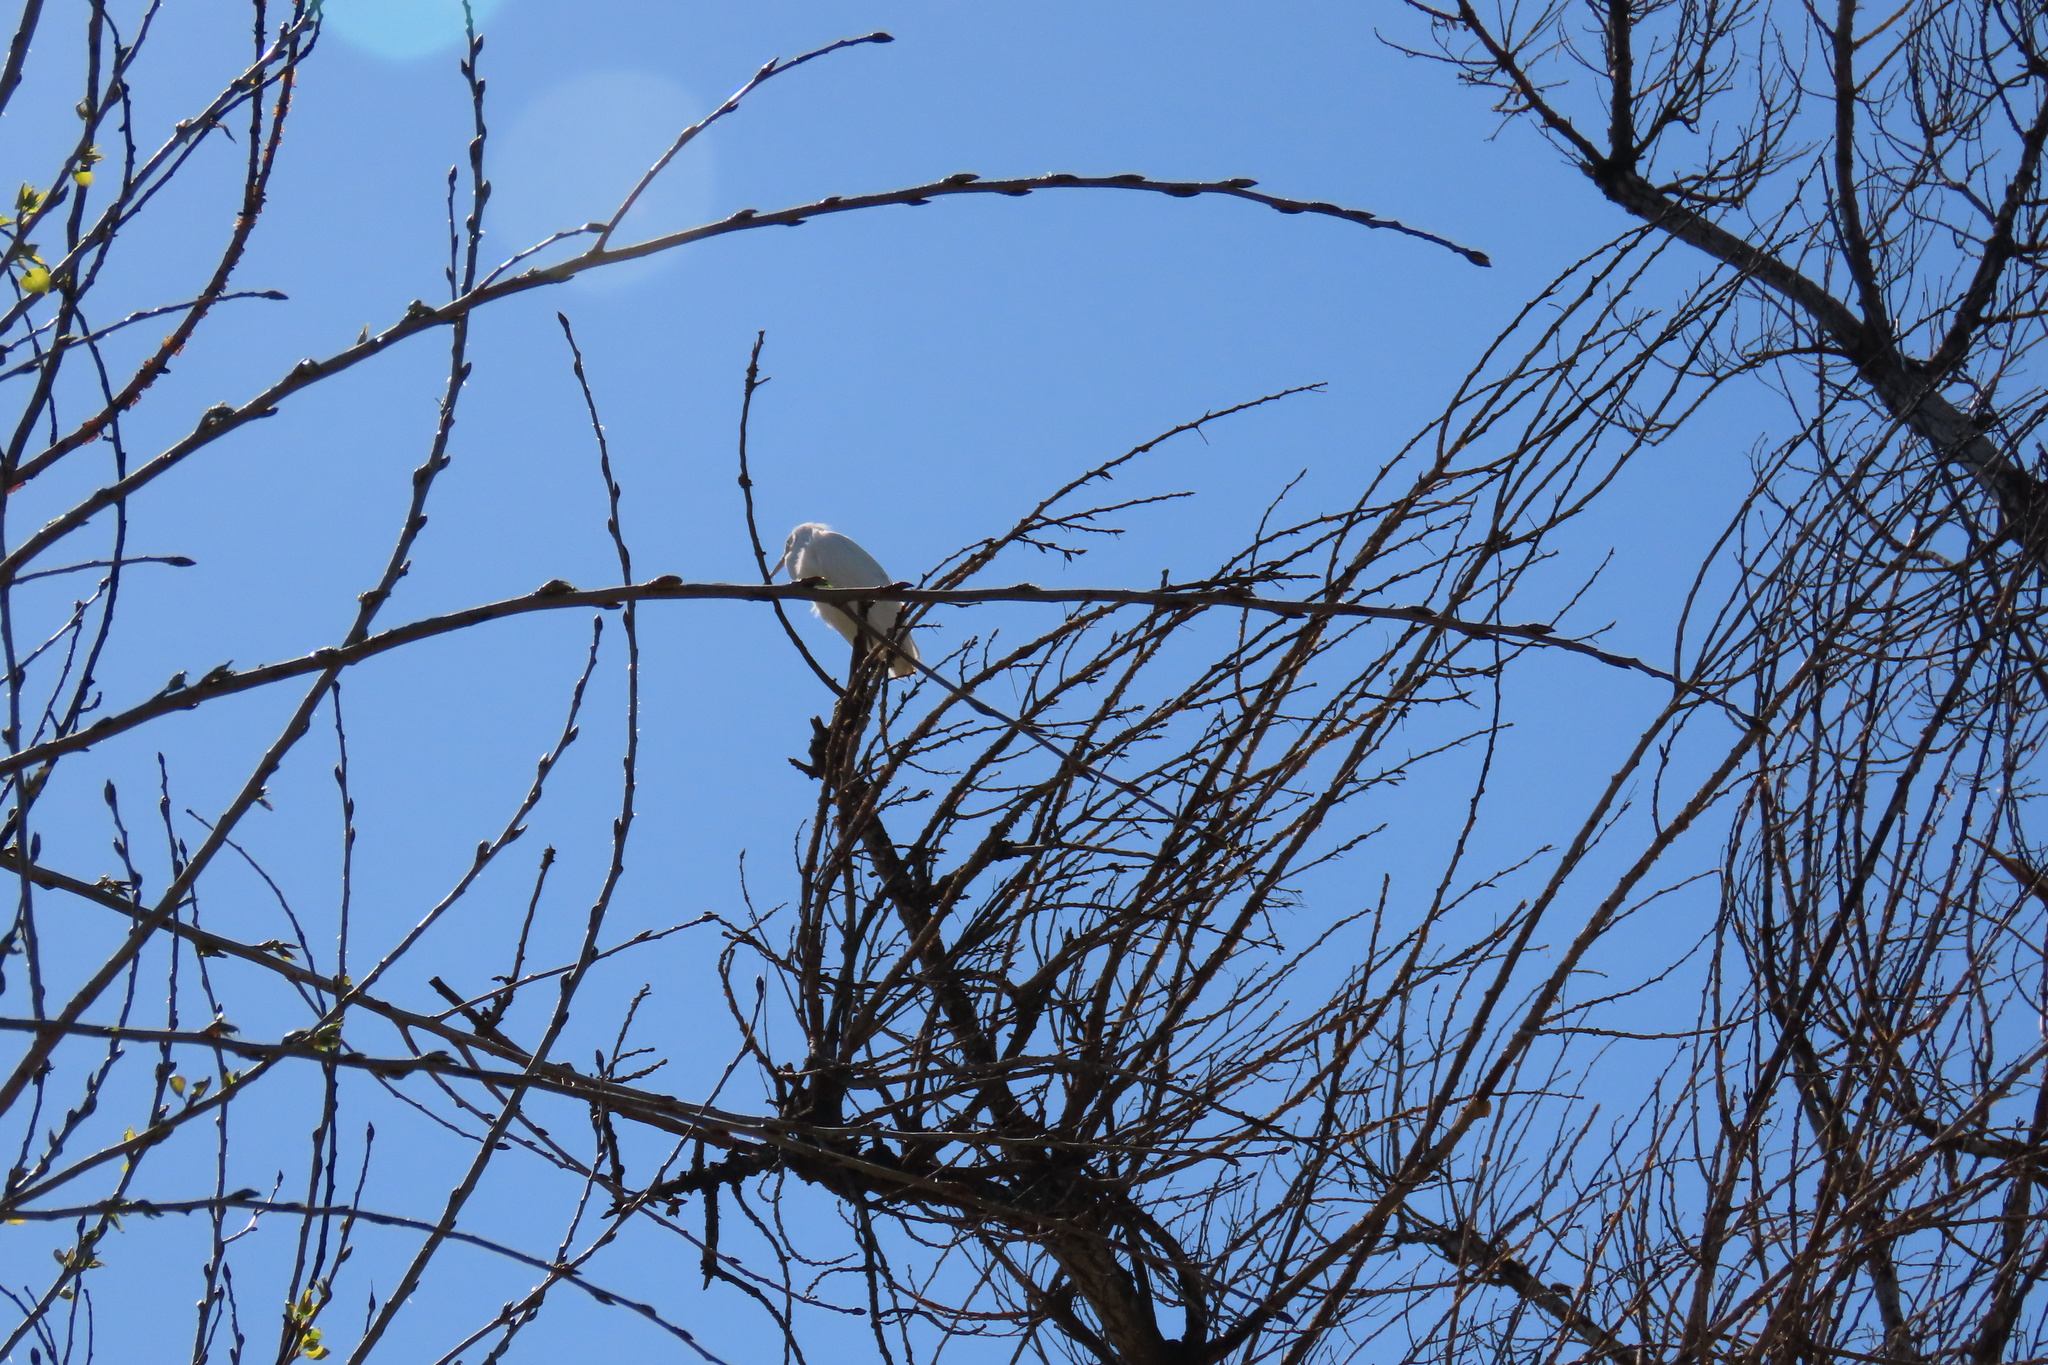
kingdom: Animalia
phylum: Chordata
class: Aves
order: Pelecaniformes
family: Ardeidae
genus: Egretta
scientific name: Egretta thula
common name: Snowy egret
